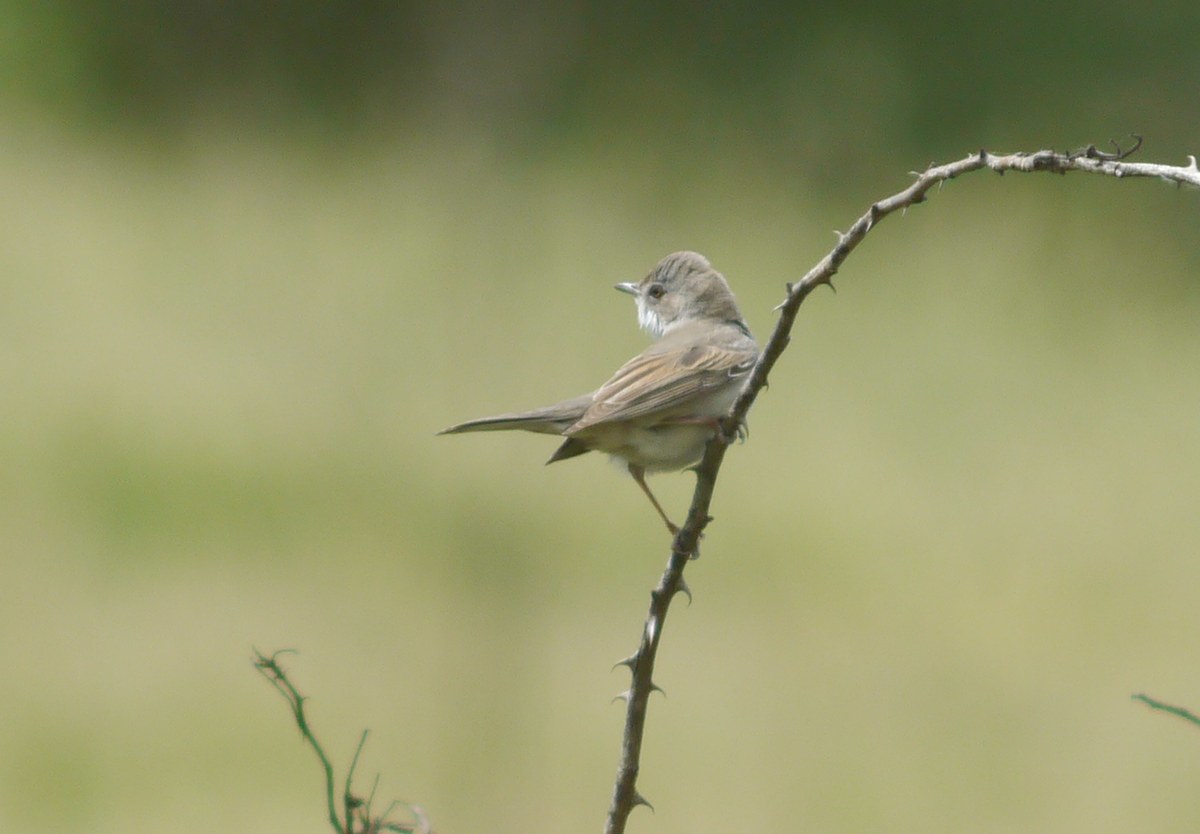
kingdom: Animalia
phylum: Chordata
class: Aves
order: Passeriformes
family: Sylviidae
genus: Sylvia
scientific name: Sylvia communis
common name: Common whitethroat
